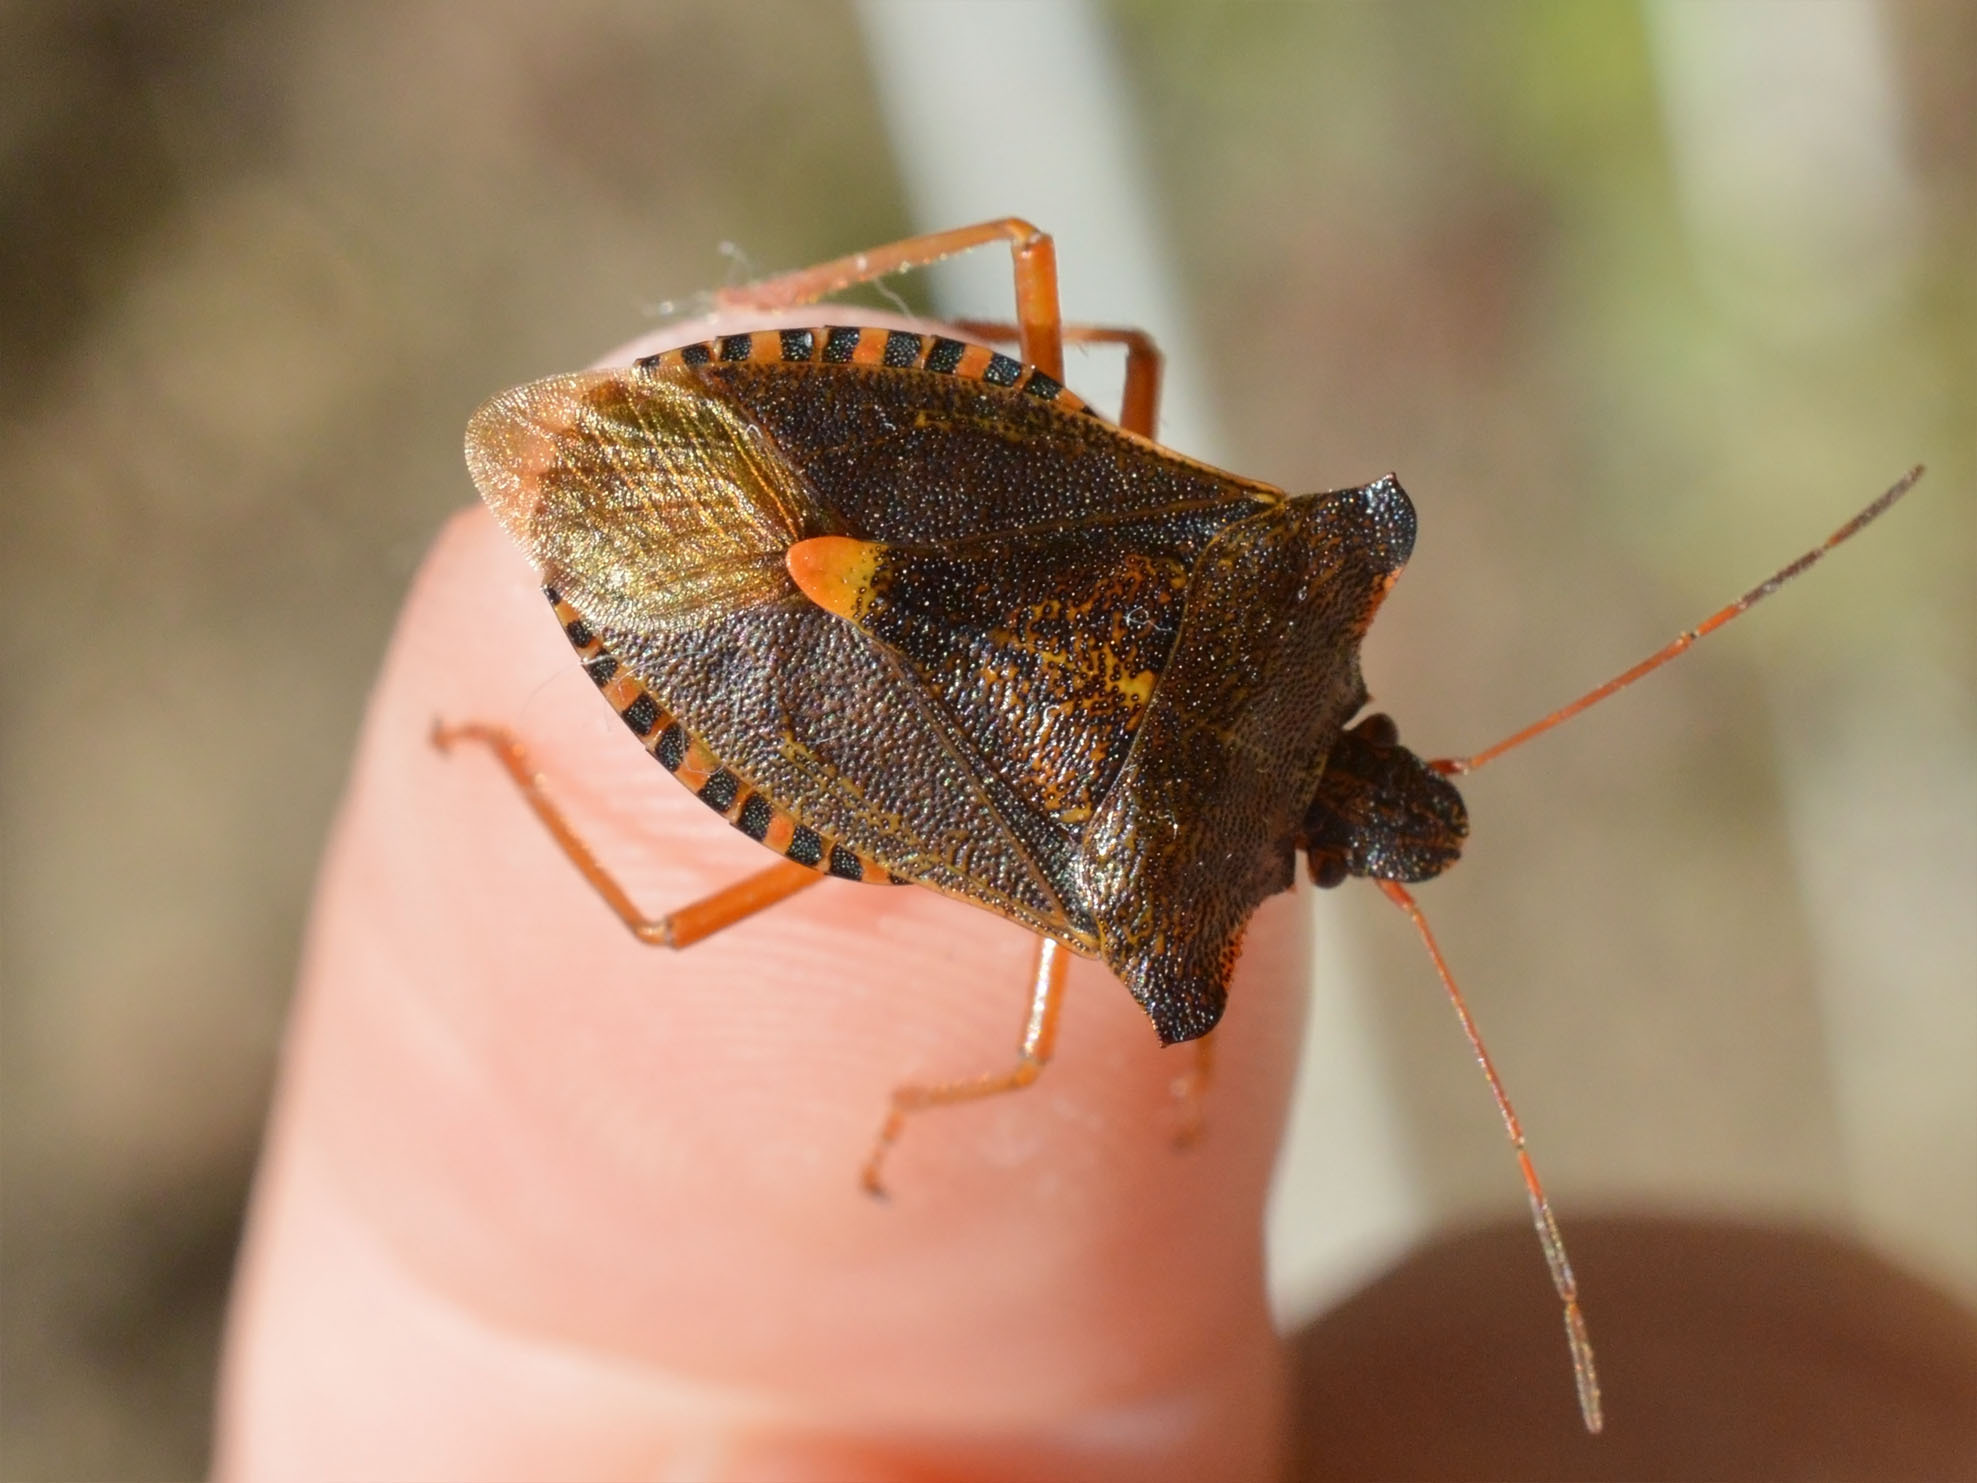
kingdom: Animalia
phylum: Arthropoda
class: Insecta
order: Hemiptera
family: Pentatomidae
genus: Pentatoma
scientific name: Pentatoma rufipes
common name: Forest bug
